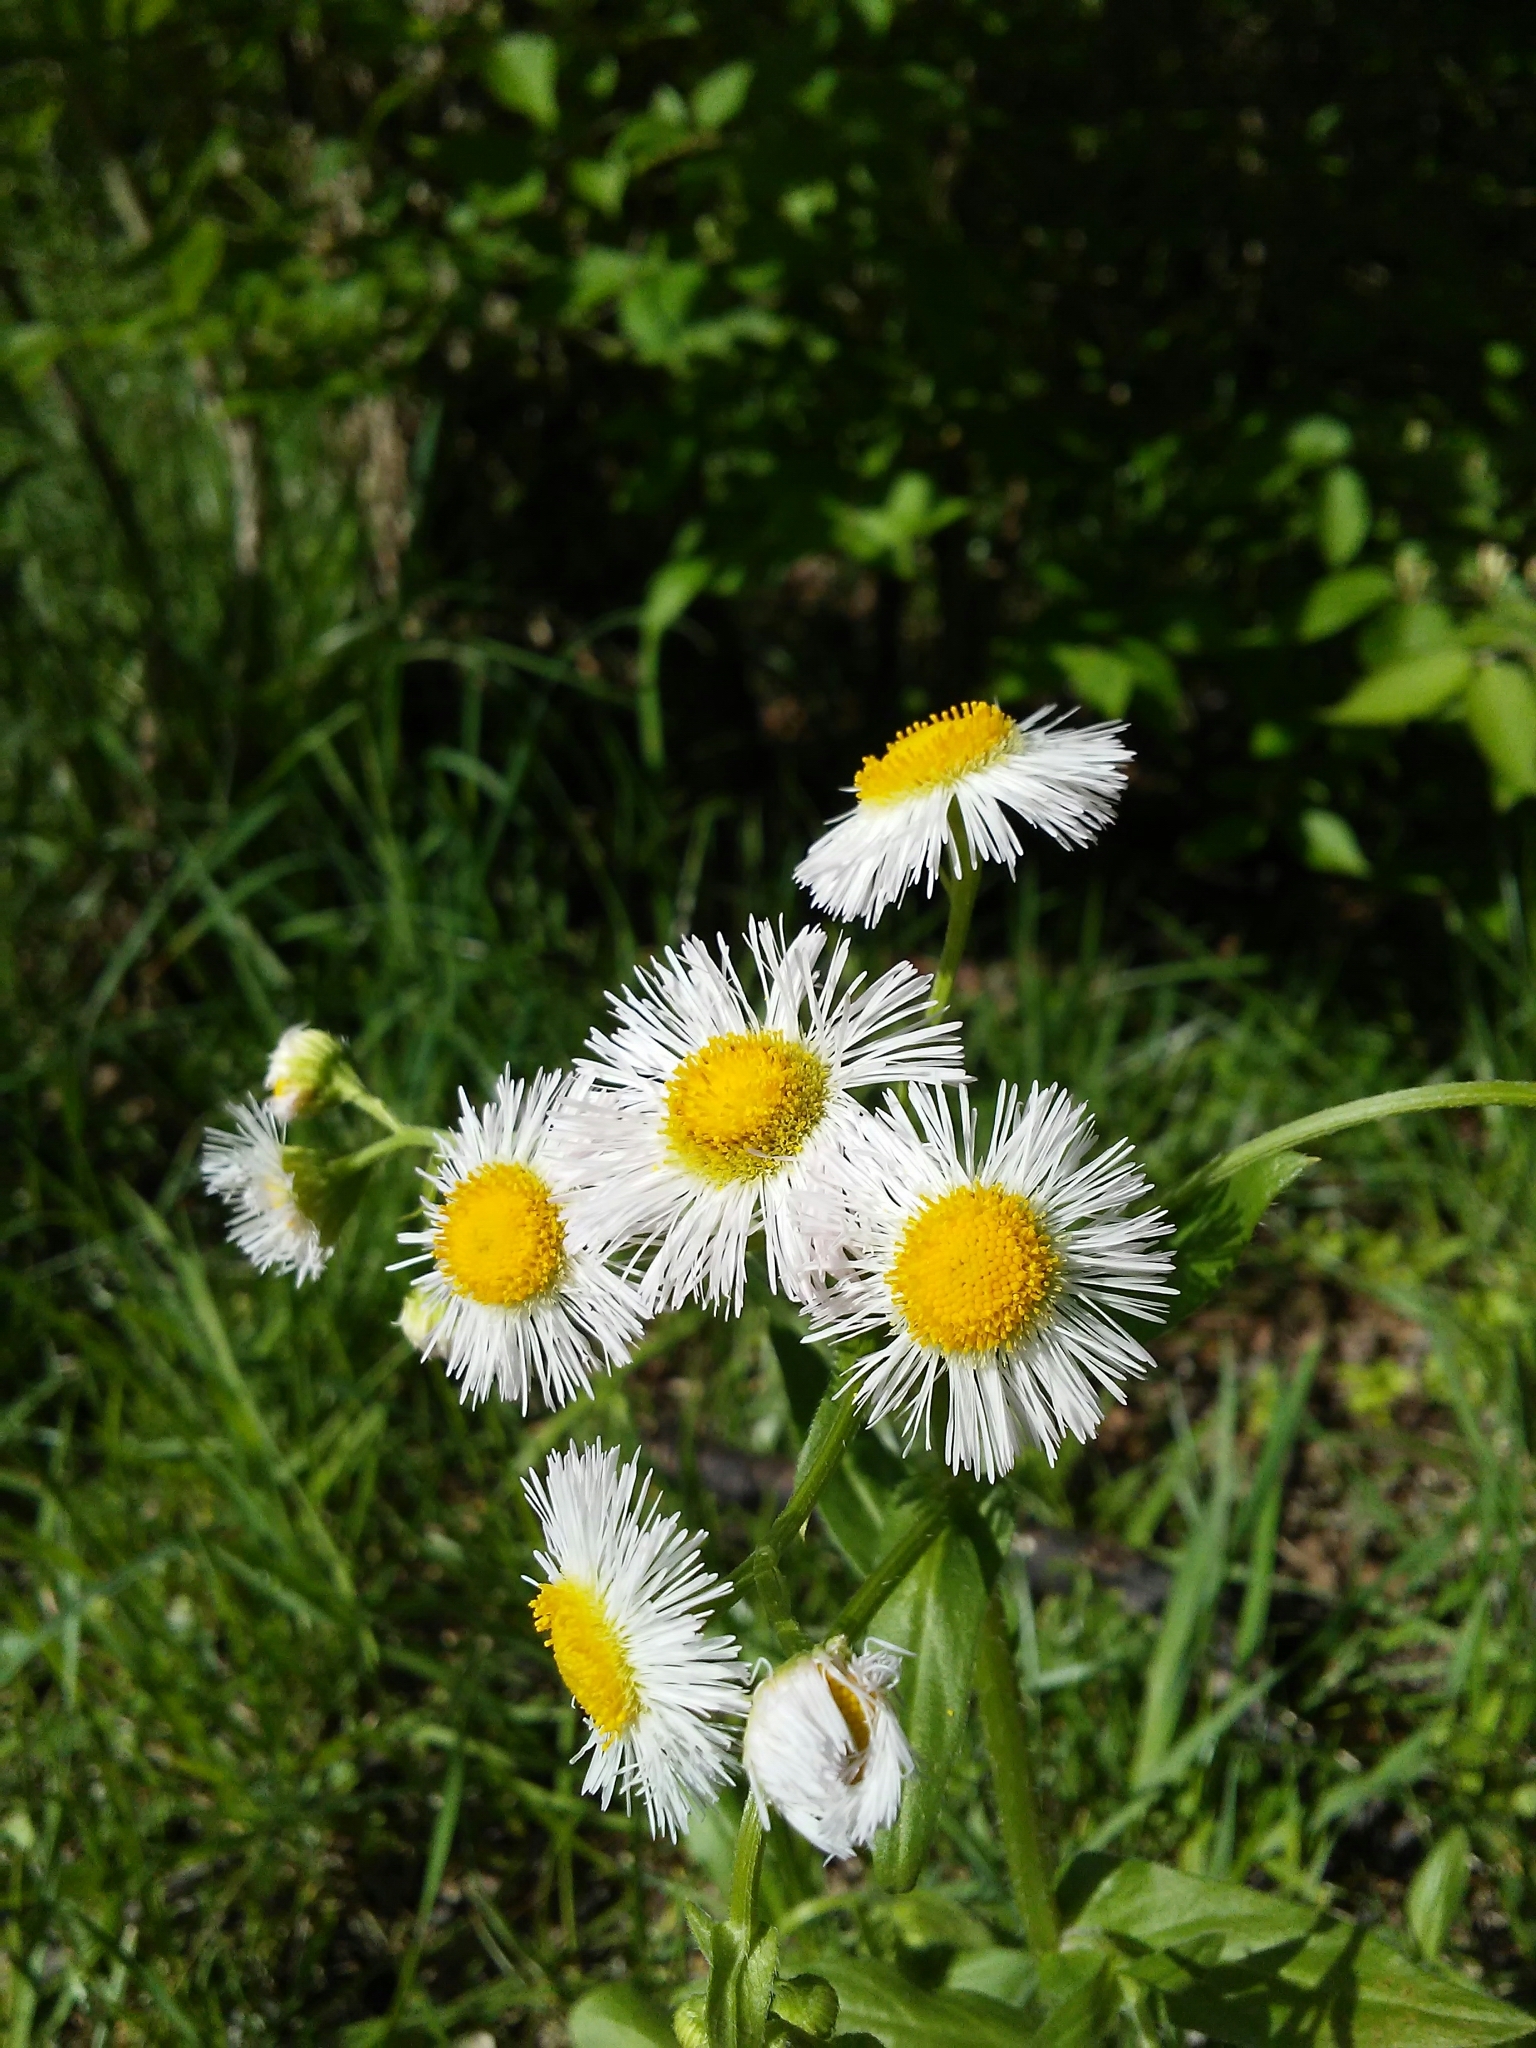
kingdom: Plantae
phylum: Tracheophyta
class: Magnoliopsida
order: Asterales
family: Asteraceae
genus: Erigeron
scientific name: Erigeron philadelphicus
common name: Robin's-plantain
